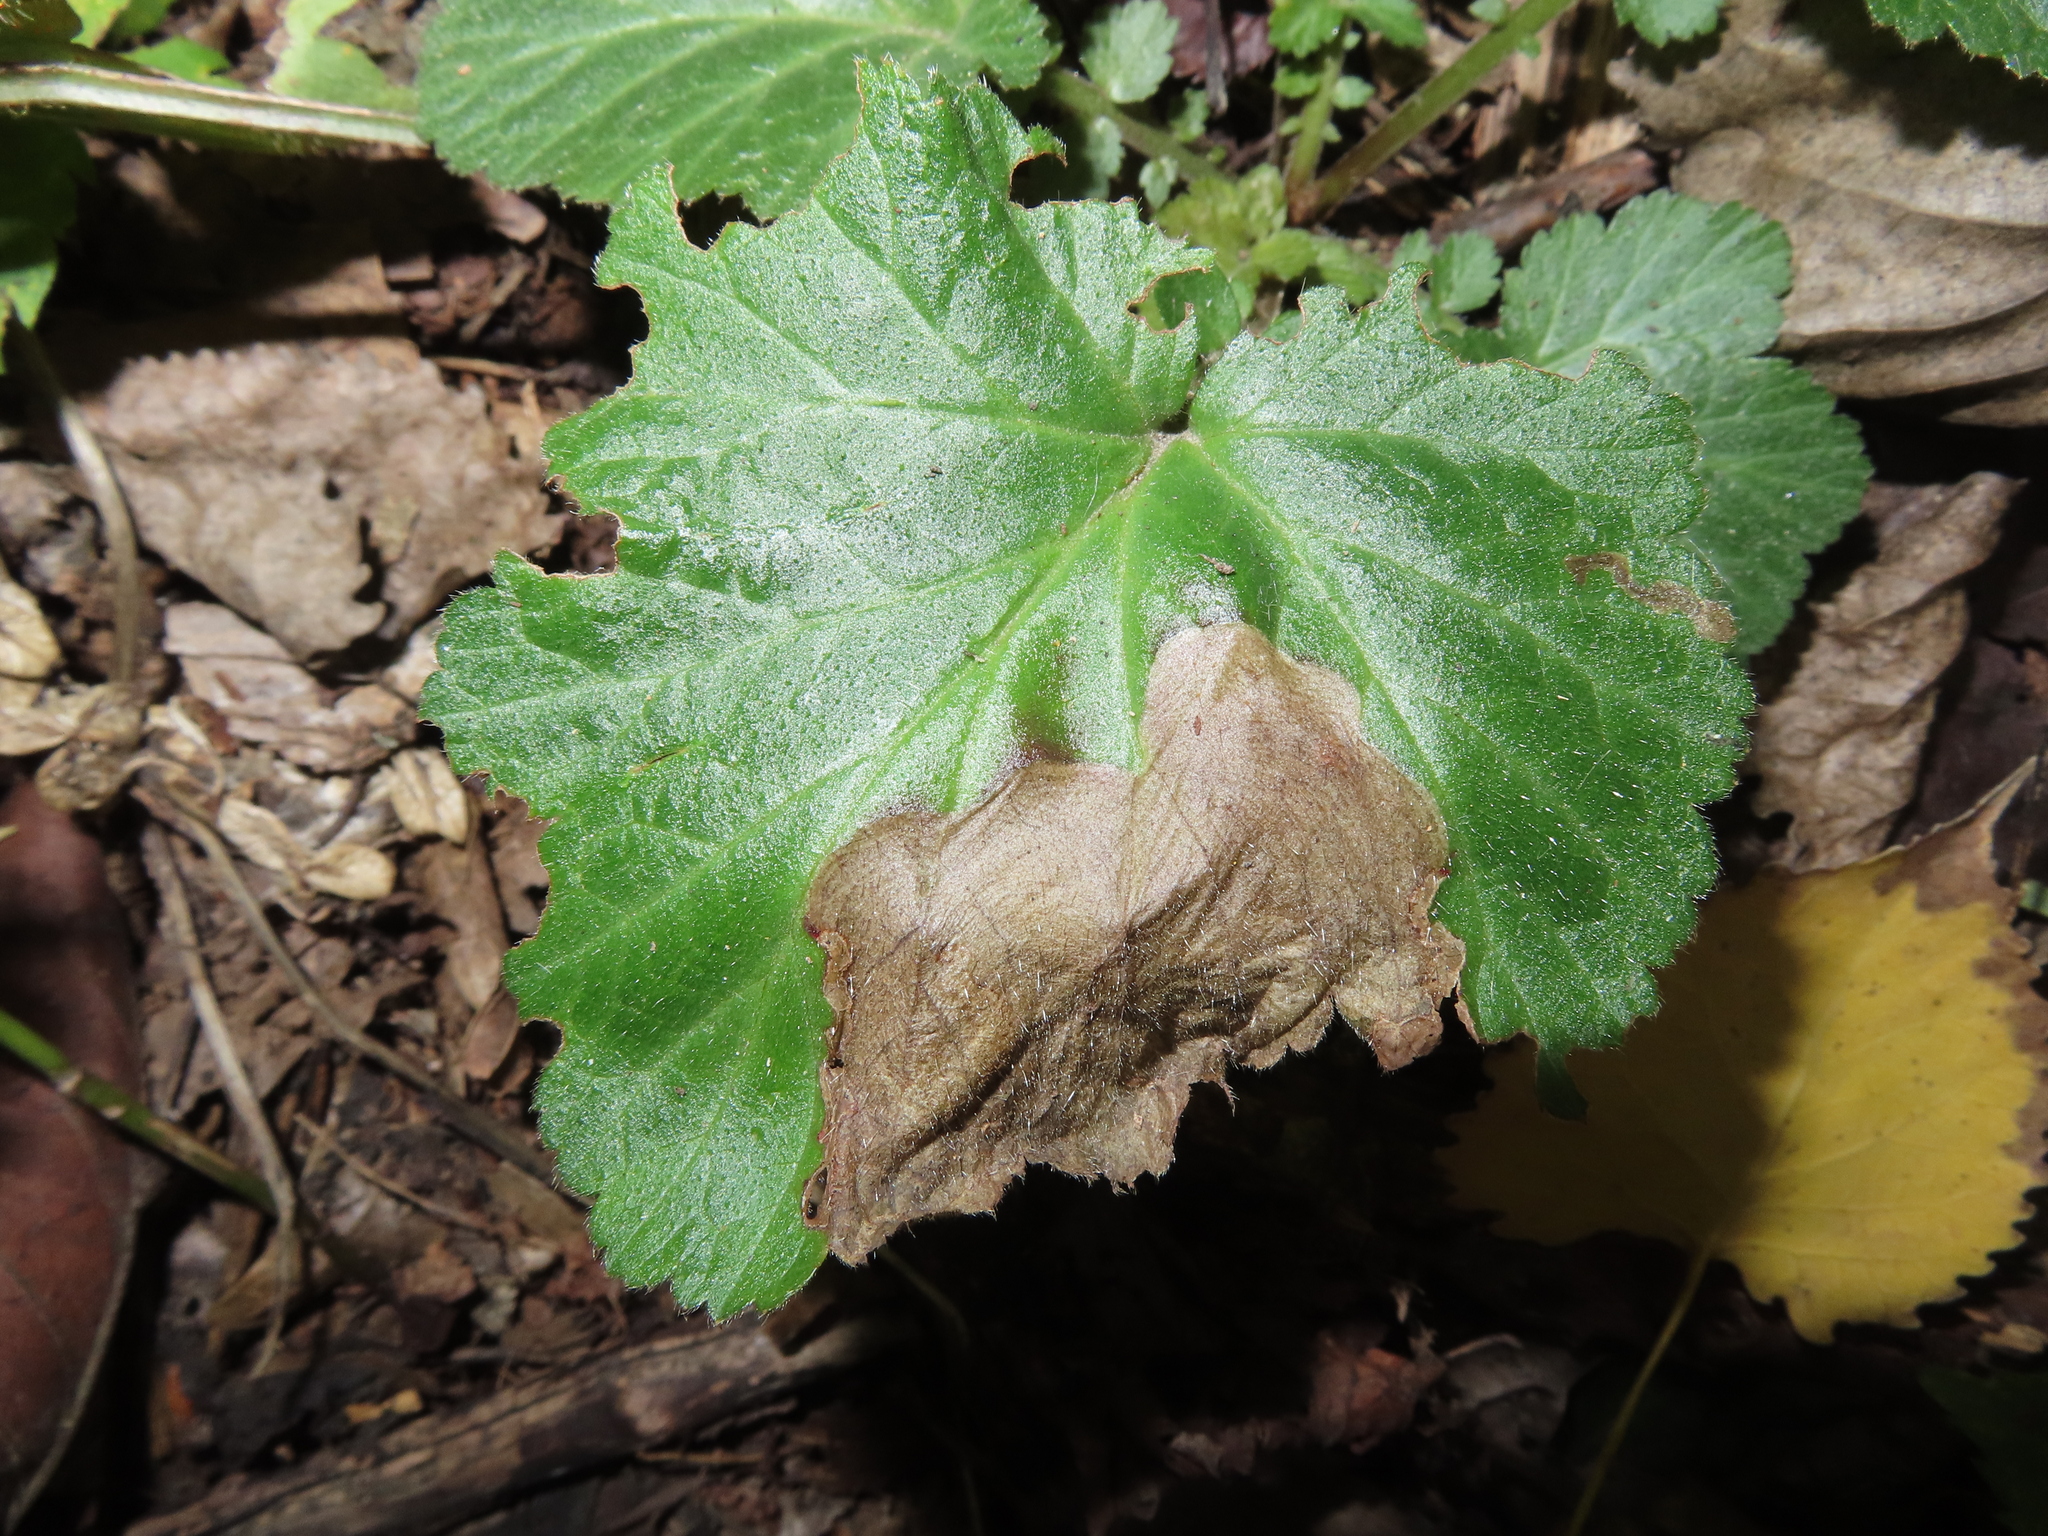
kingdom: Animalia
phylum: Arthropoda
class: Insecta
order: Hymenoptera
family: Tenthredinidae
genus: Metallus
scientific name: Metallus lanceolatus
